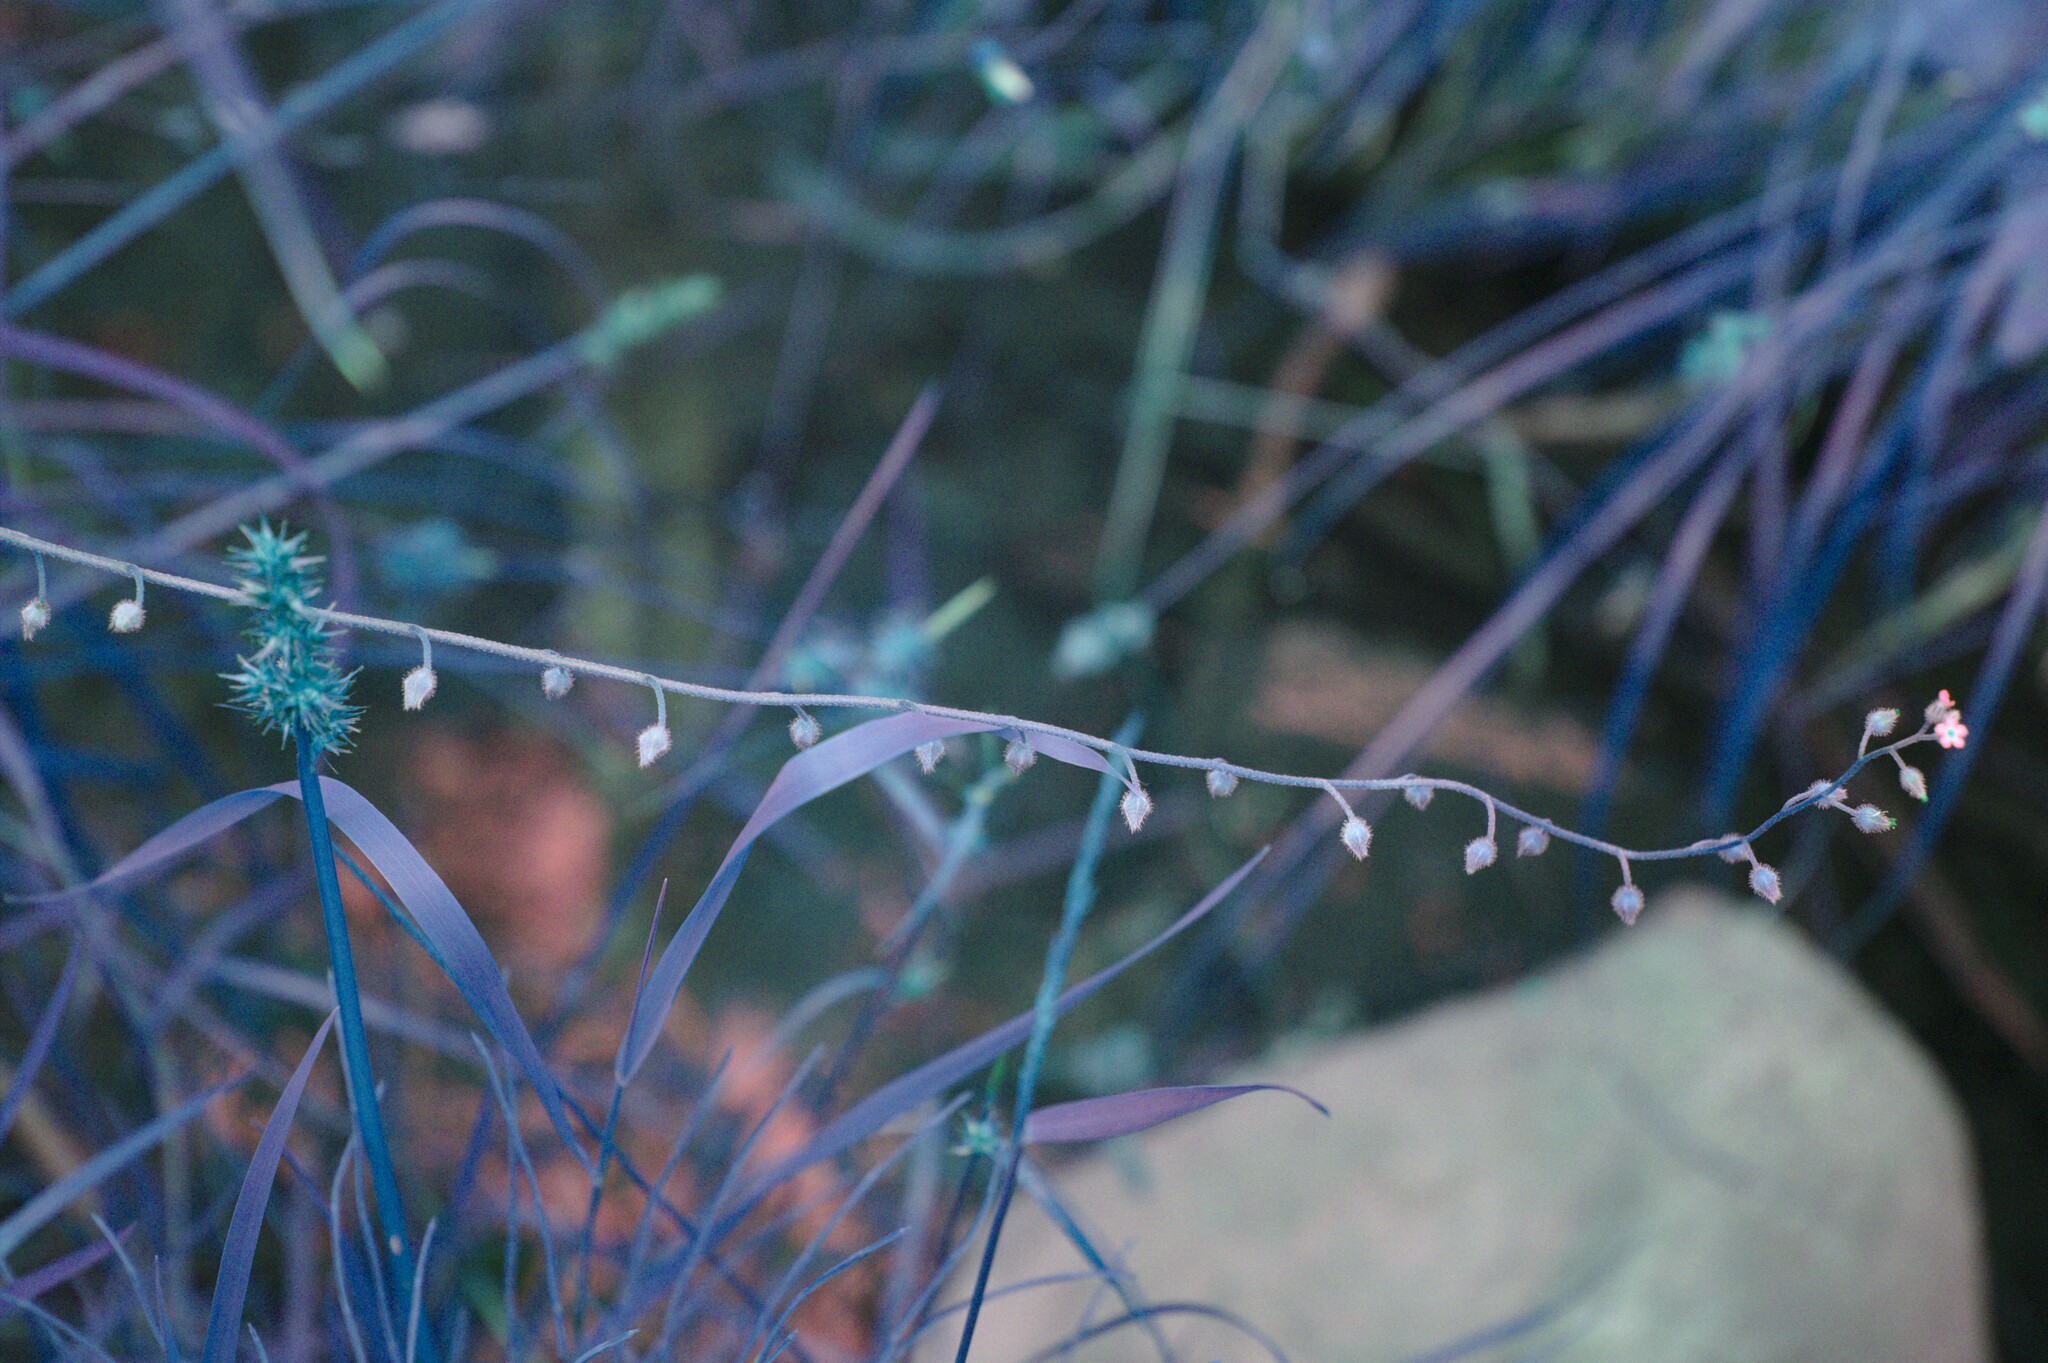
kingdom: Plantae
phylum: Tracheophyta
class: Liliopsida
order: Poales
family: Cyperaceae
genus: Carex
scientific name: Carex stipata
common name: Awl-fruited sedge
